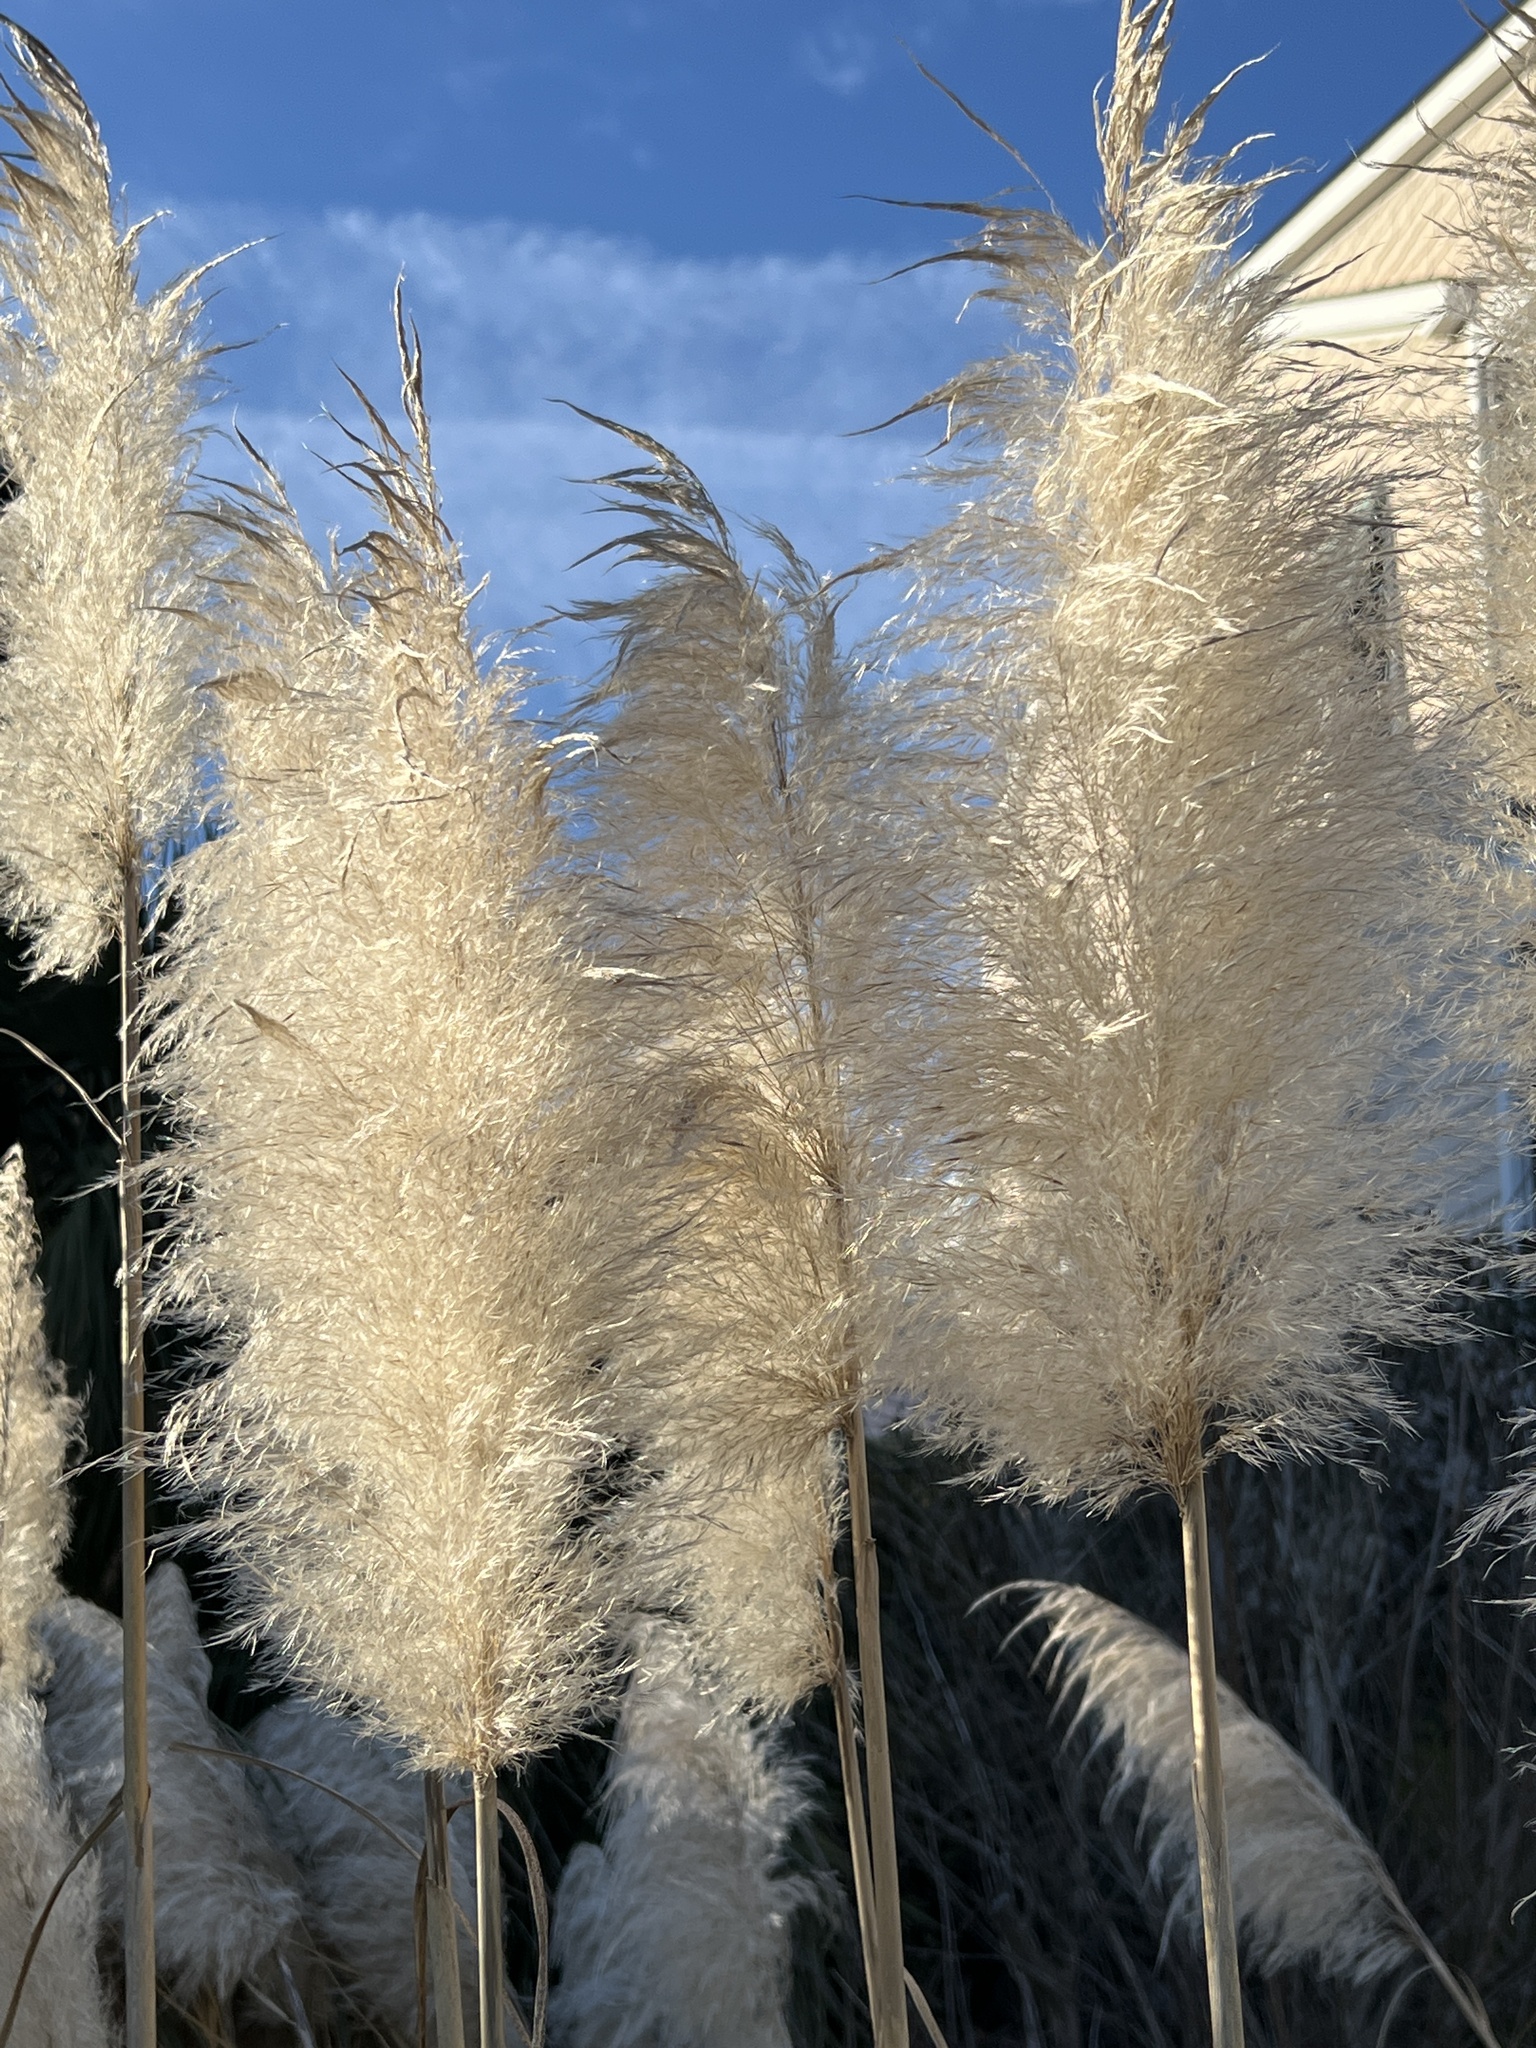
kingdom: Plantae
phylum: Tracheophyta
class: Liliopsida
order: Poales
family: Poaceae
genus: Cortaderia
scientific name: Cortaderia selloana
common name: Uruguayan pampas grass
